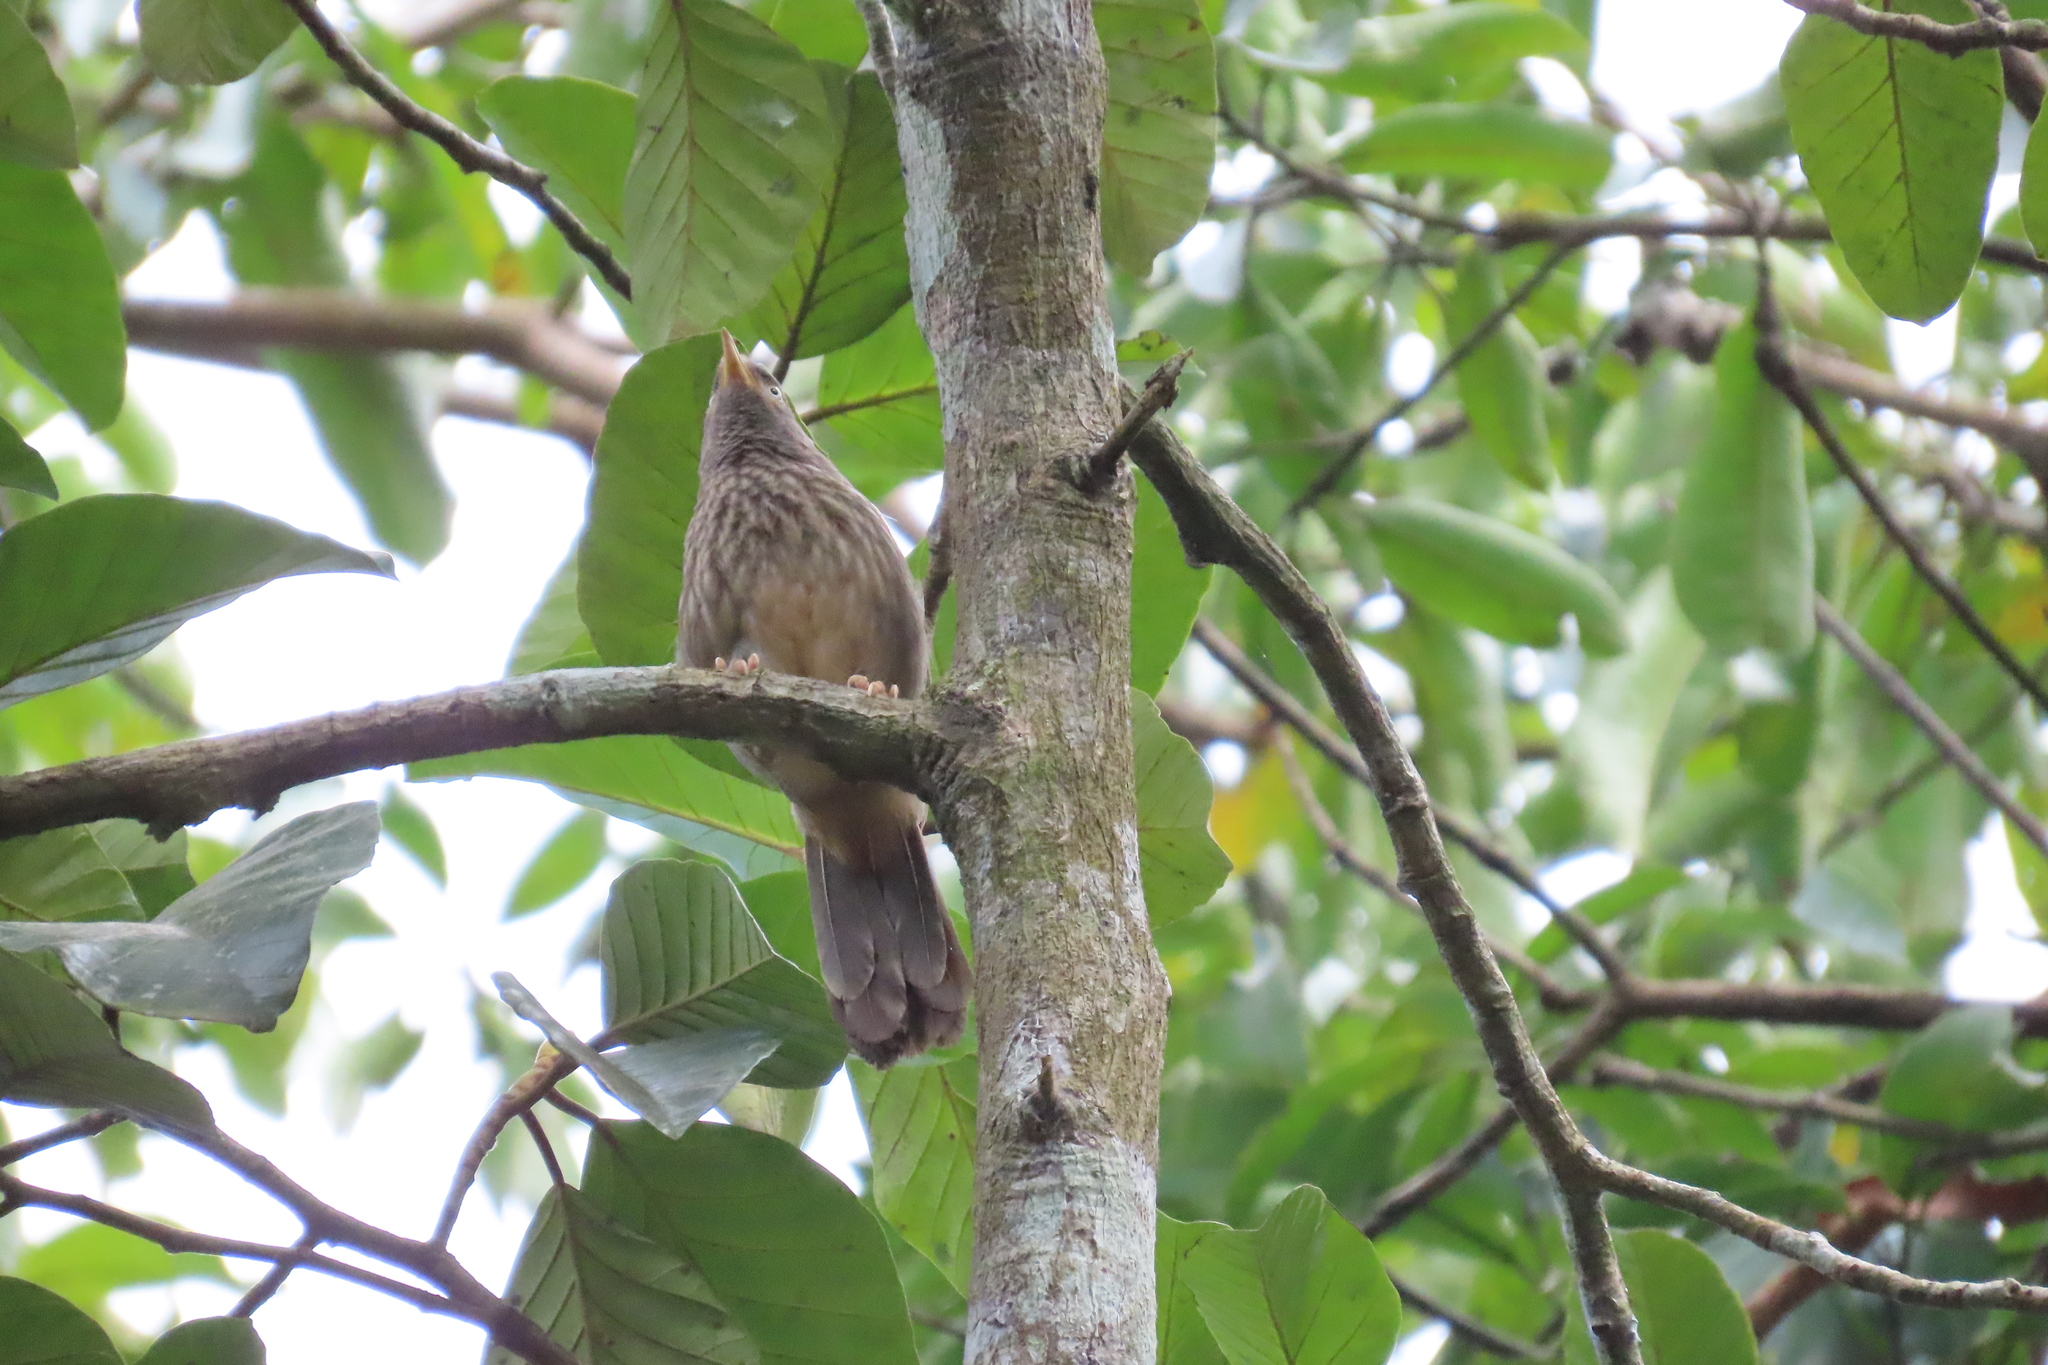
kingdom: Animalia
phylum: Chordata
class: Aves
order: Passeriformes
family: Leiothrichidae
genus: Turdoides
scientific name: Turdoides striata
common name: Jungle babbler
